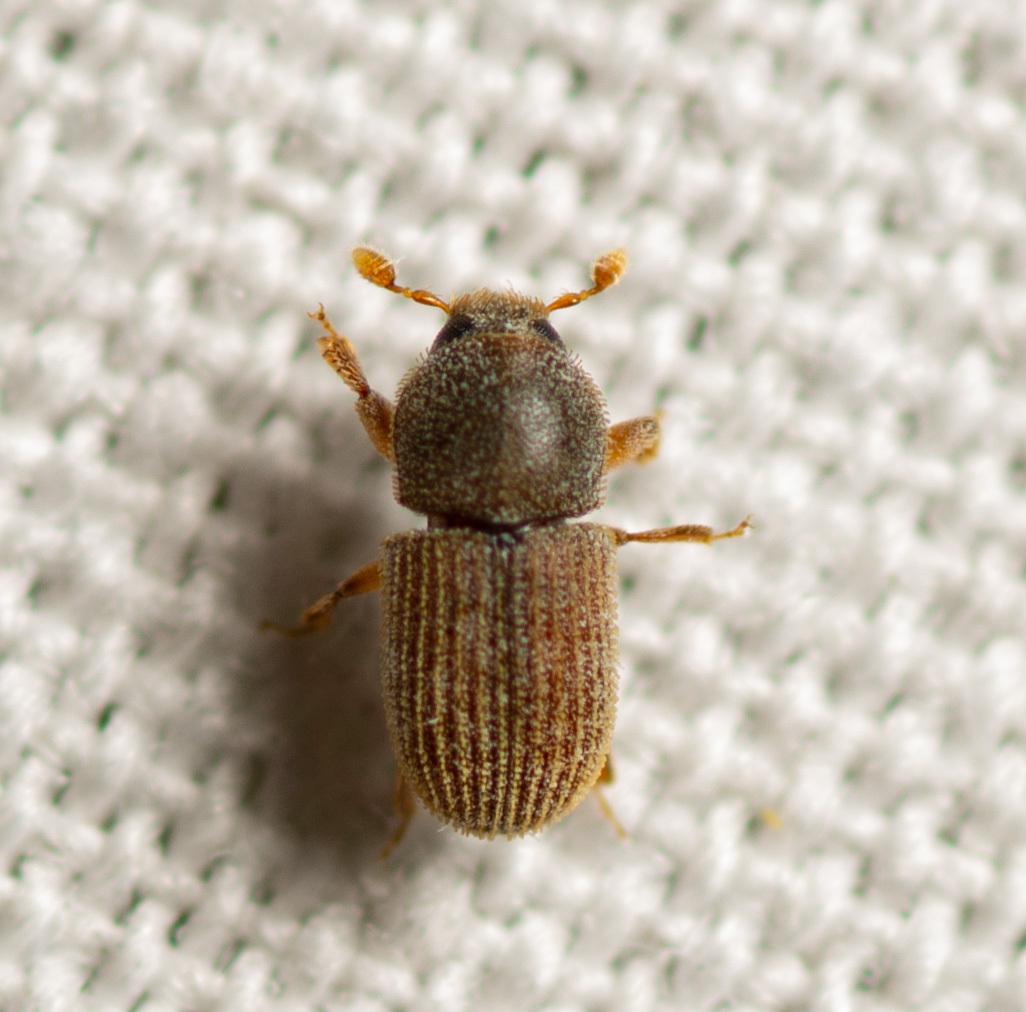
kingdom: Animalia
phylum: Arthropoda
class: Insecta
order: Coleoptera
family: Curculionidae
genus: Pycnarthrum
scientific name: Pycnarthrum hispidum
